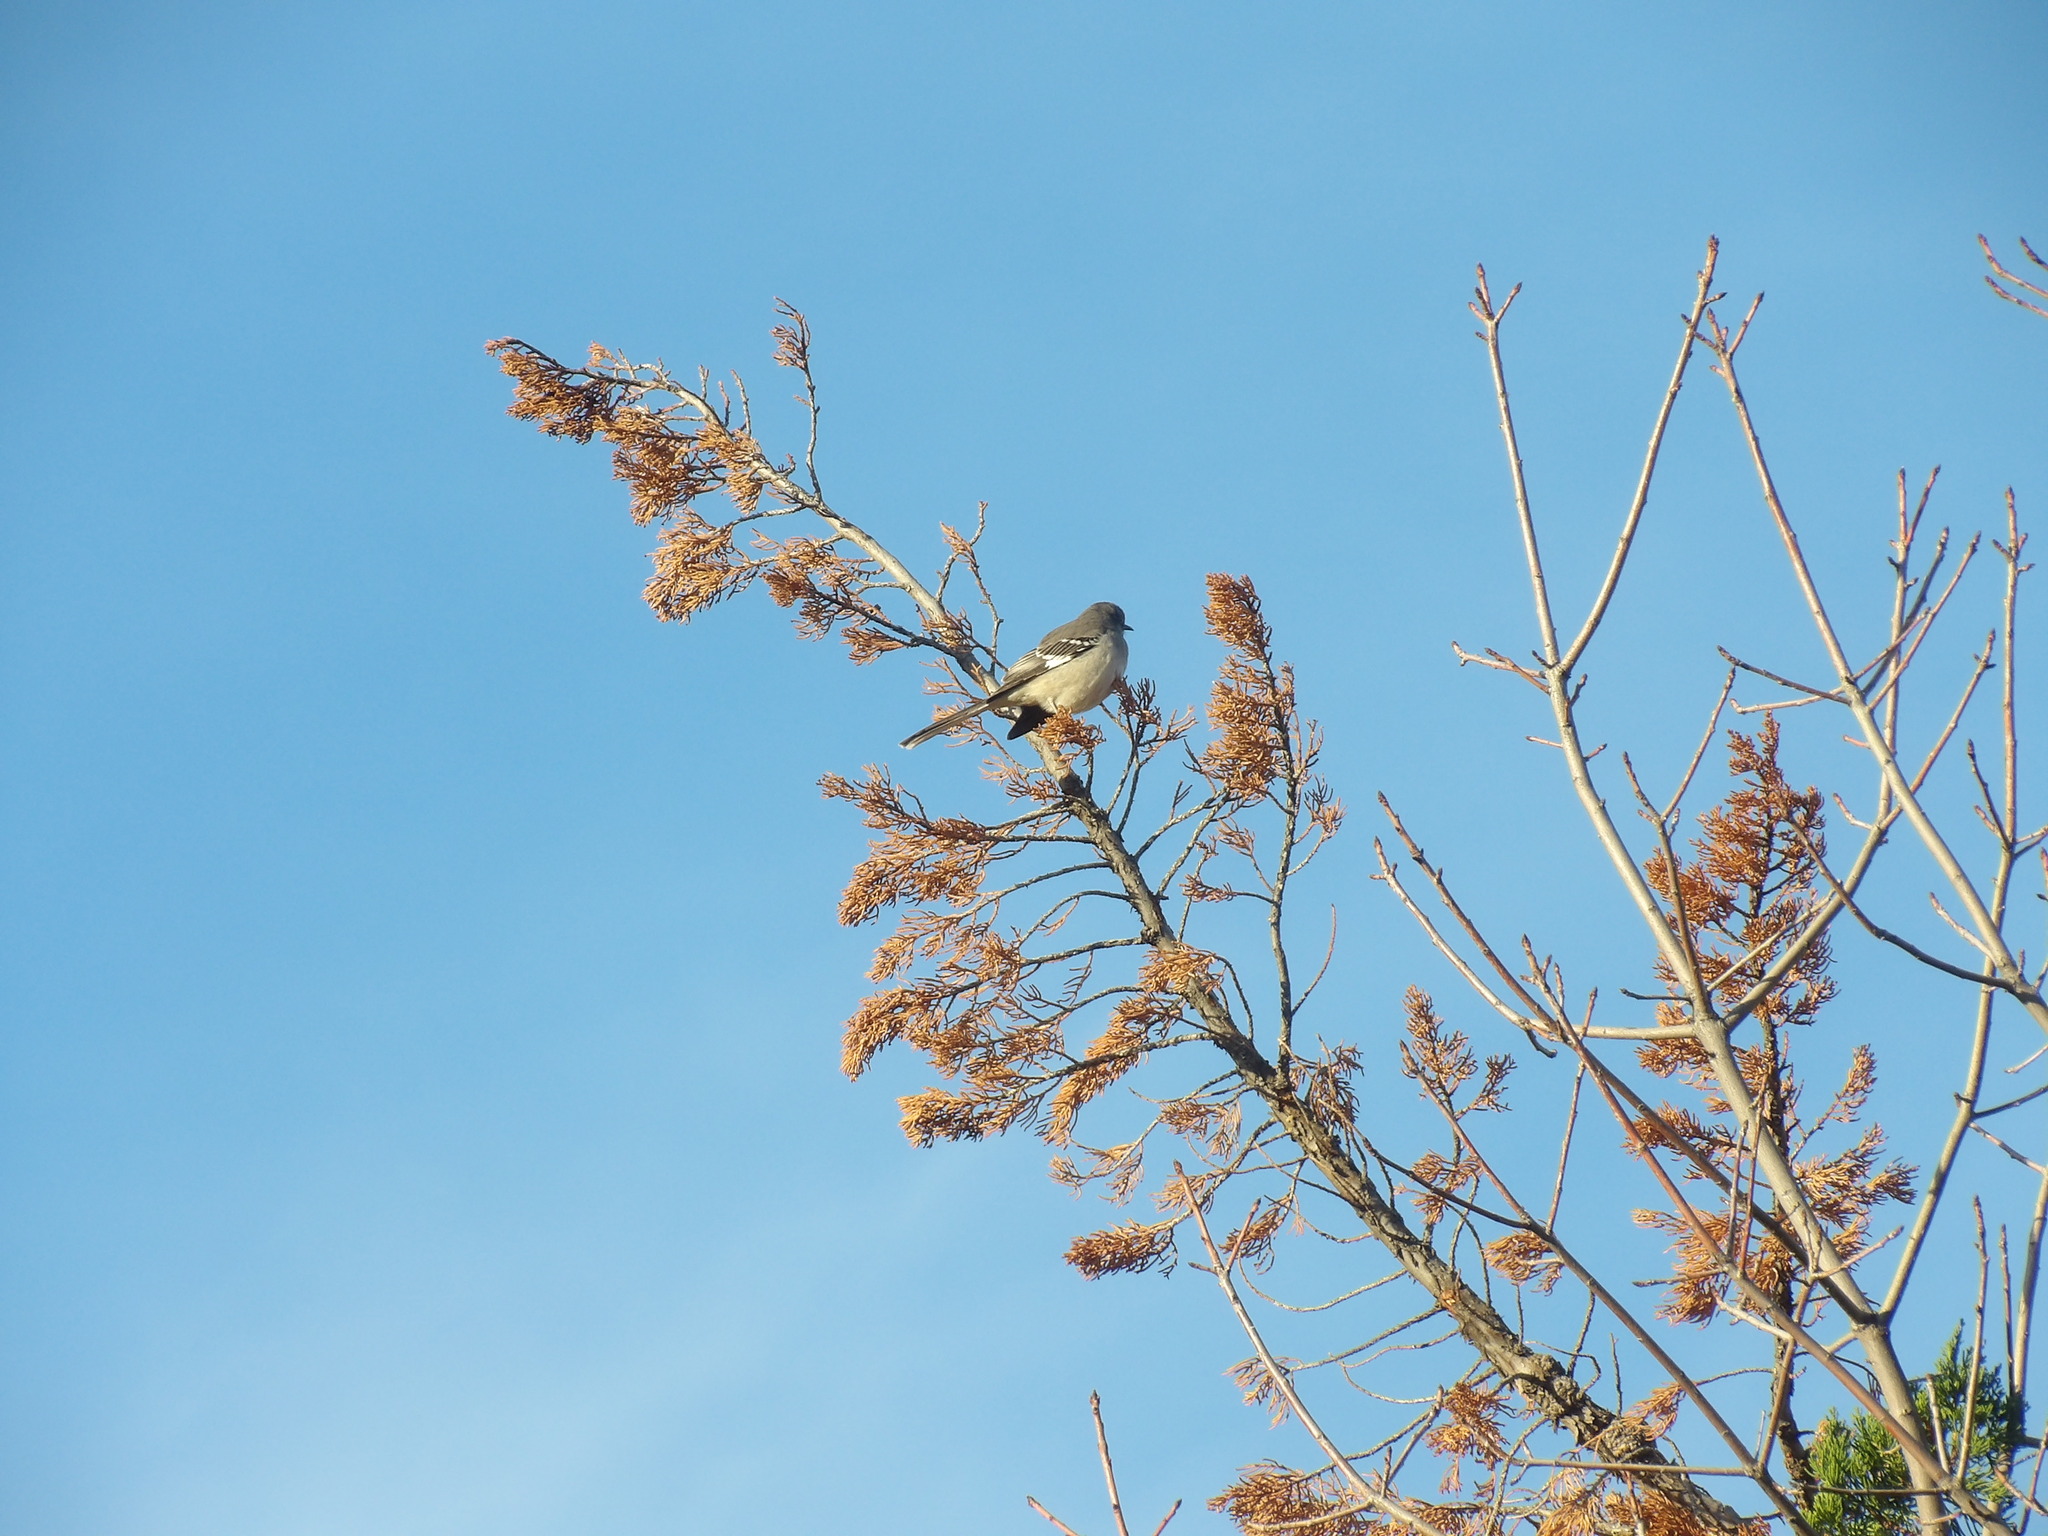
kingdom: Animalia
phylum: Chordata
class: Aves
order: Passeriformes
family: Mimidae
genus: Mimus
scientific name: Mimus polyglottos
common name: Northern mockingbird
